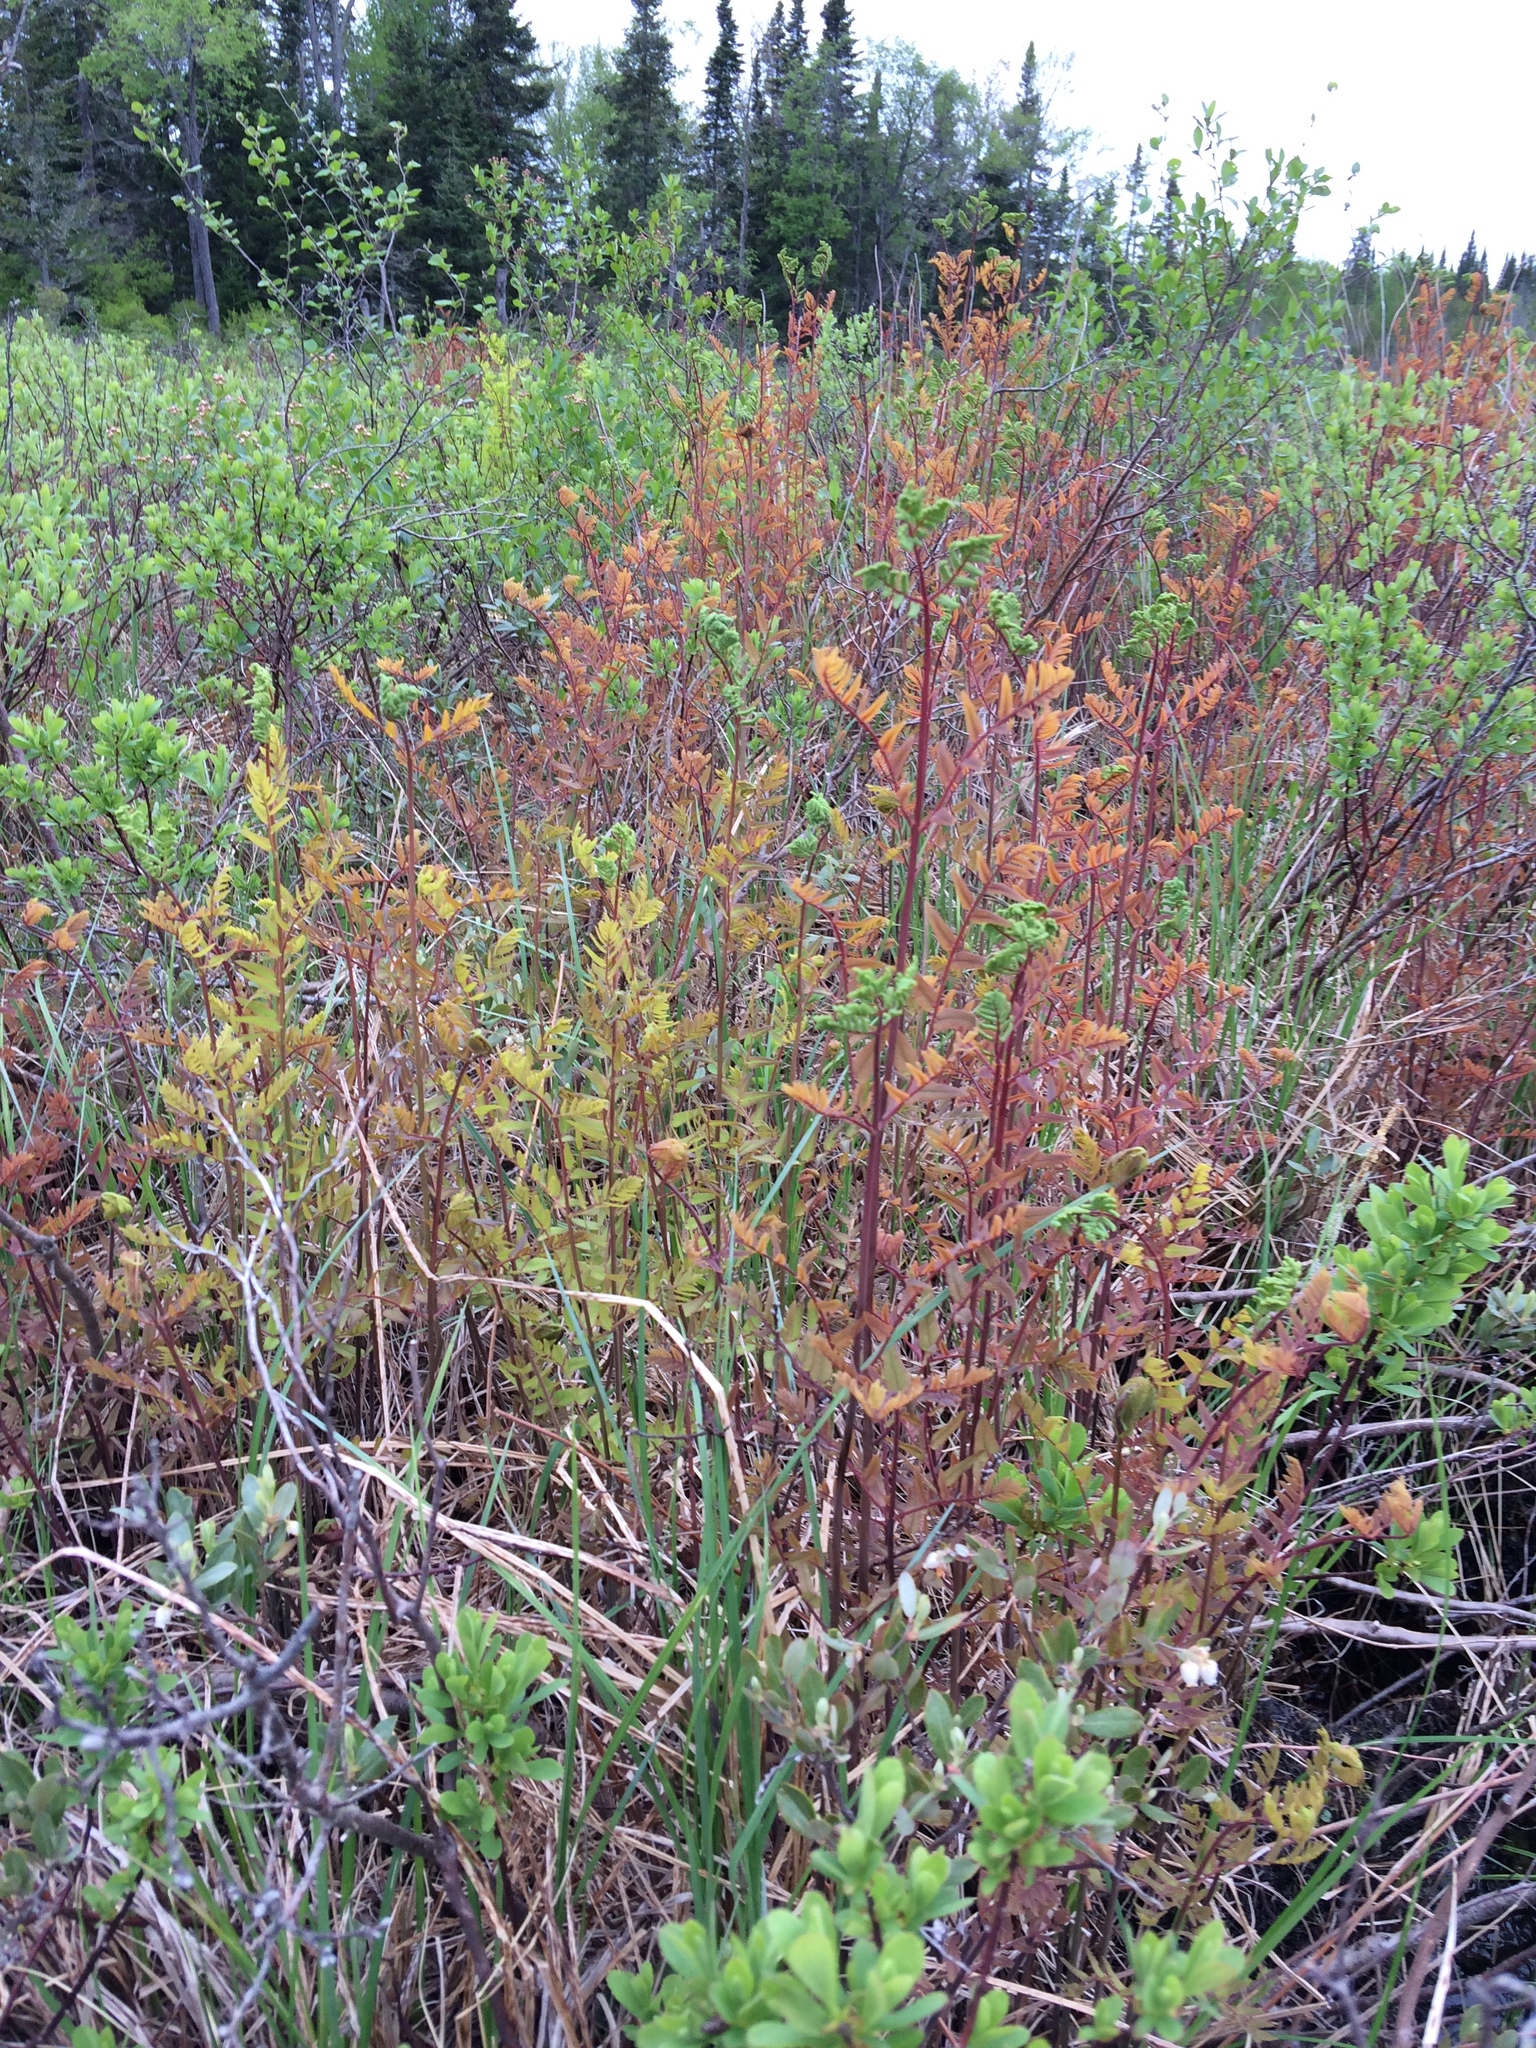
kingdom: Plantae
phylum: Tracheophyta
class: Polypodiopsida
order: Osmundales
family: Osmundaceae
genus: Osmunda
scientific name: Osmunda spectabilis
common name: American royal fern
